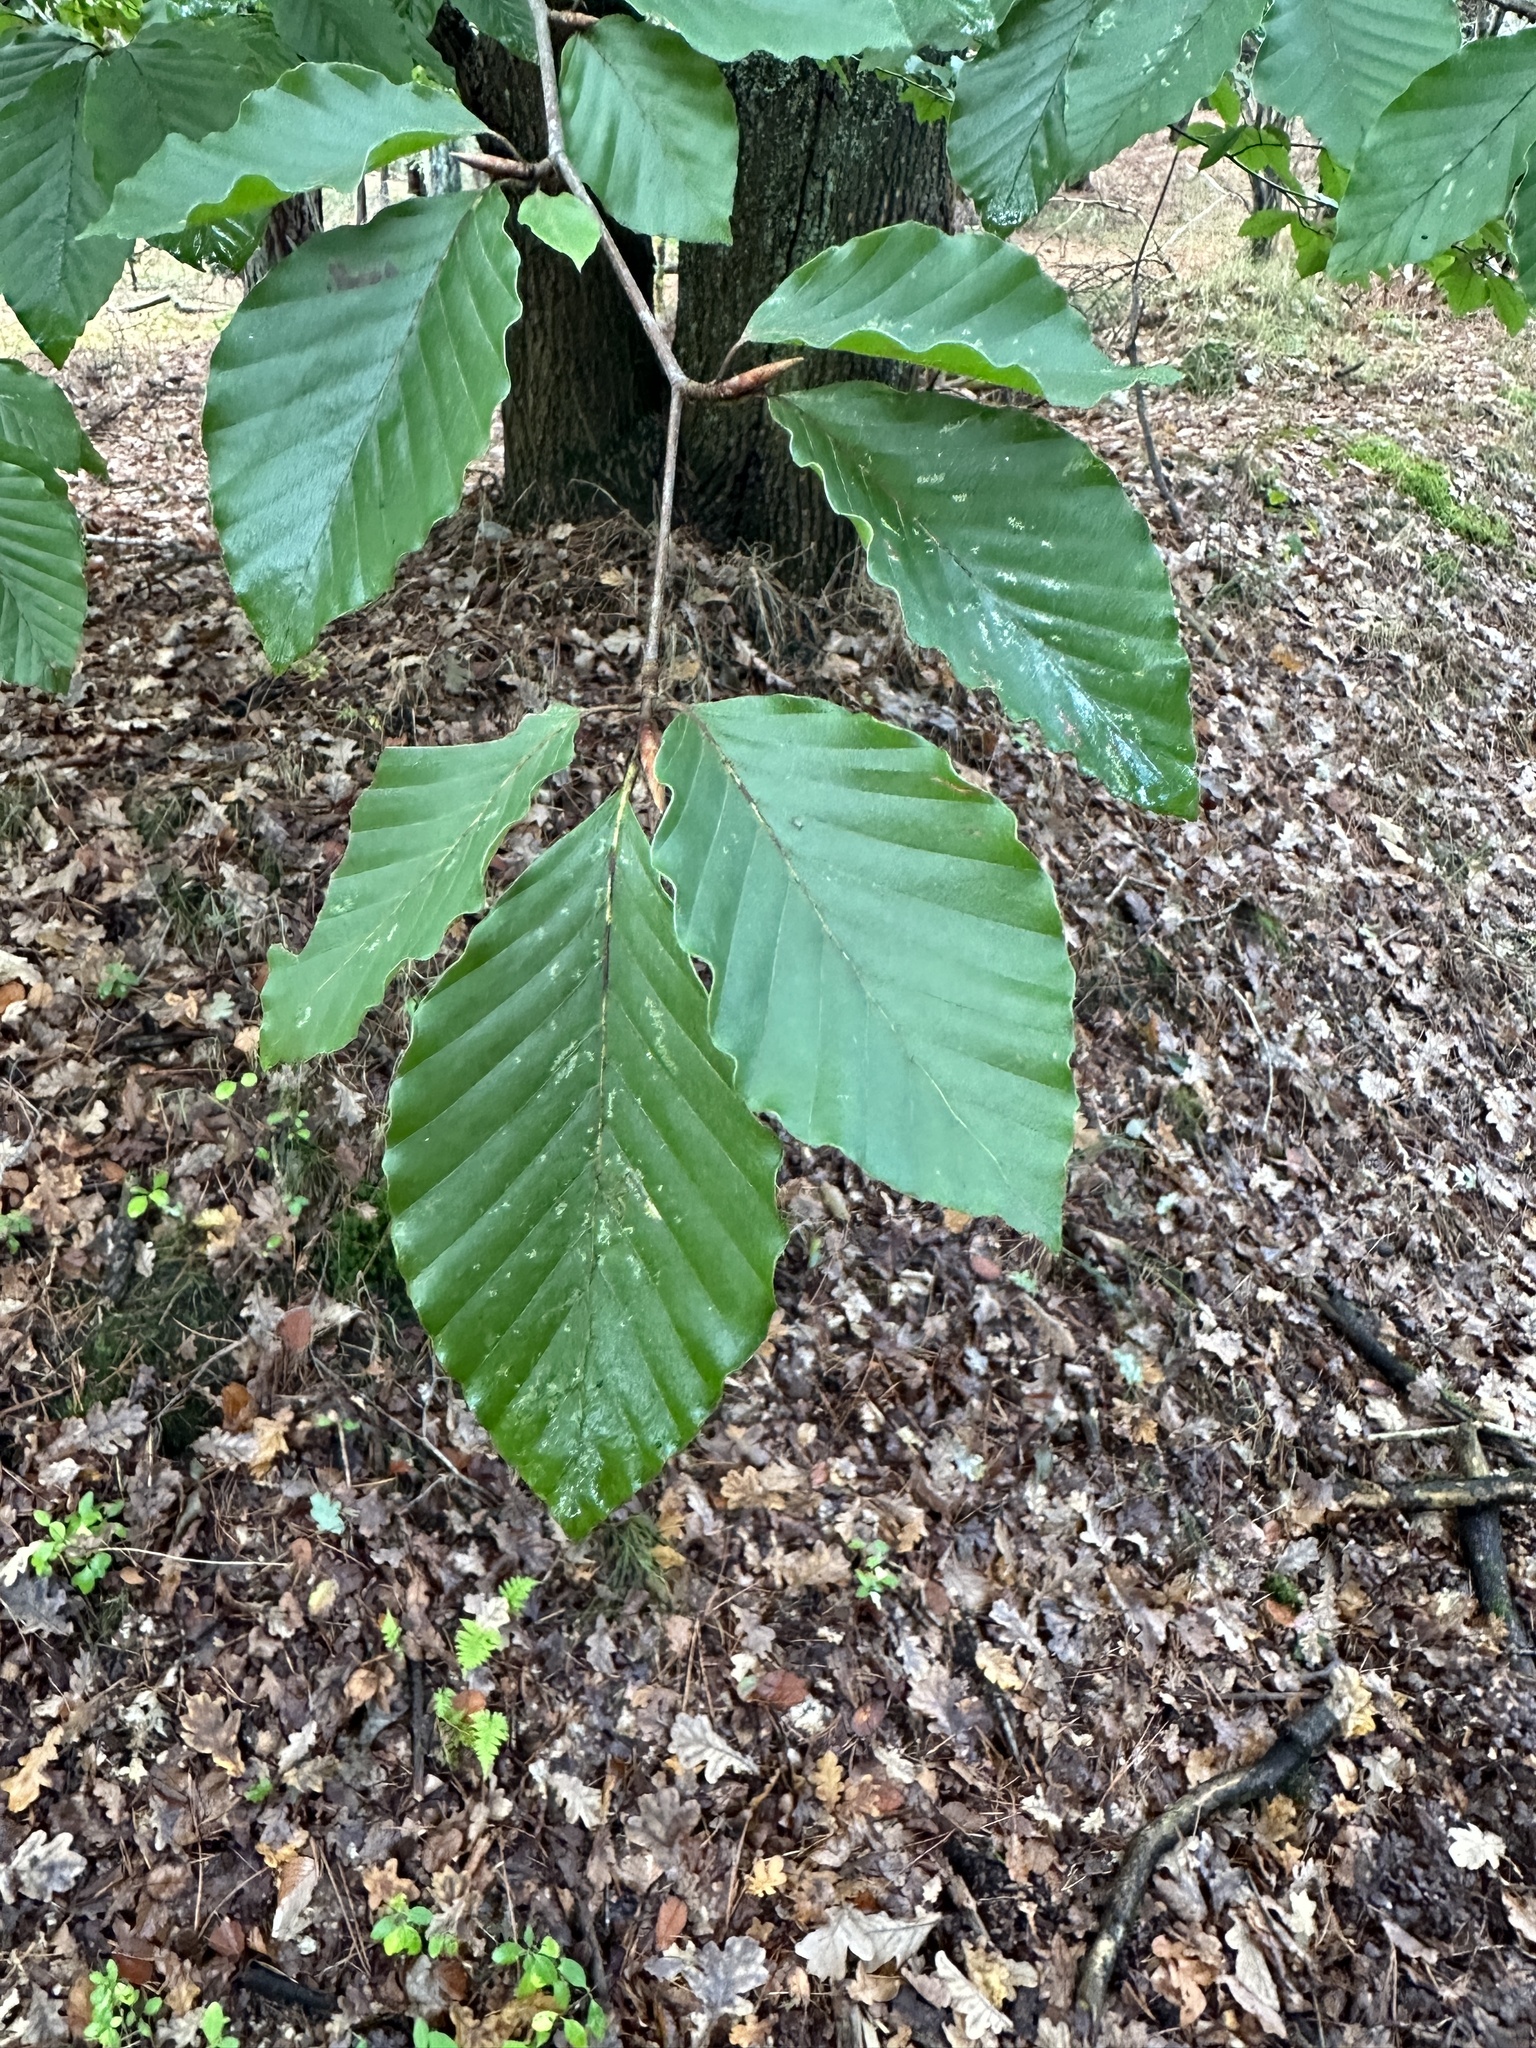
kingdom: Plantae
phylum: Tracheophyta
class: Magnoliopsida
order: Fagales
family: Fagaceae
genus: Fagus
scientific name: Fagus sylvatica
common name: Beech
